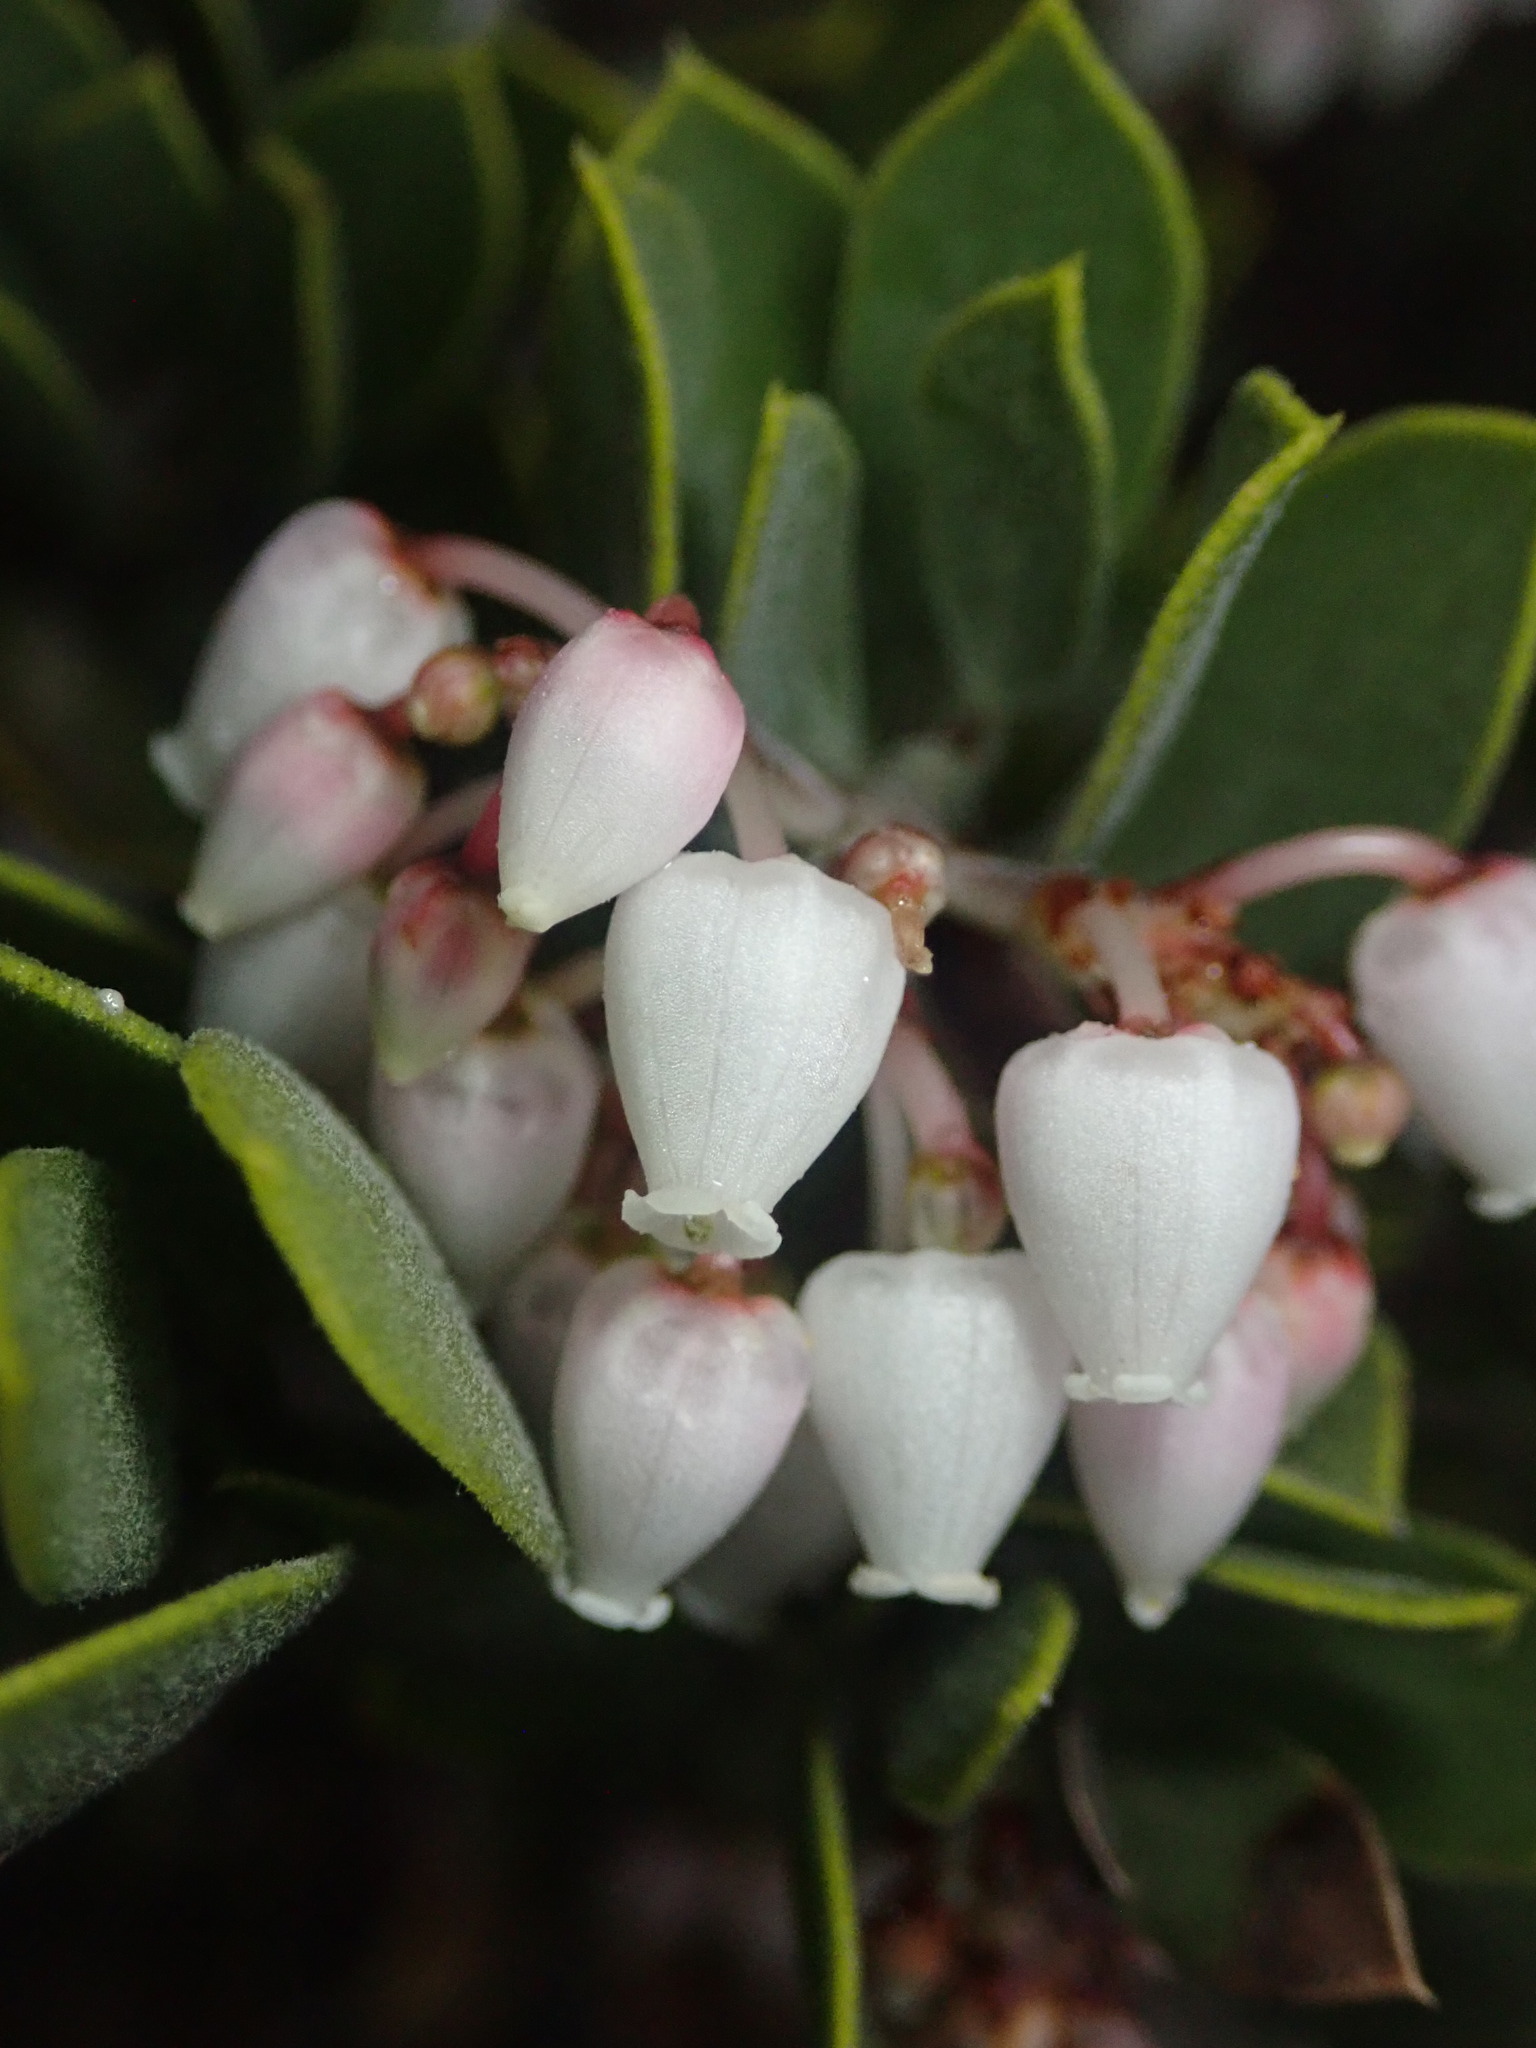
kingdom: Plantae
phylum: Tracheophyta
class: Magnoliopsida
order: Ericales
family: Ericaceae
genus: Arctostaphylos
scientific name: Arctostaphylos montana
